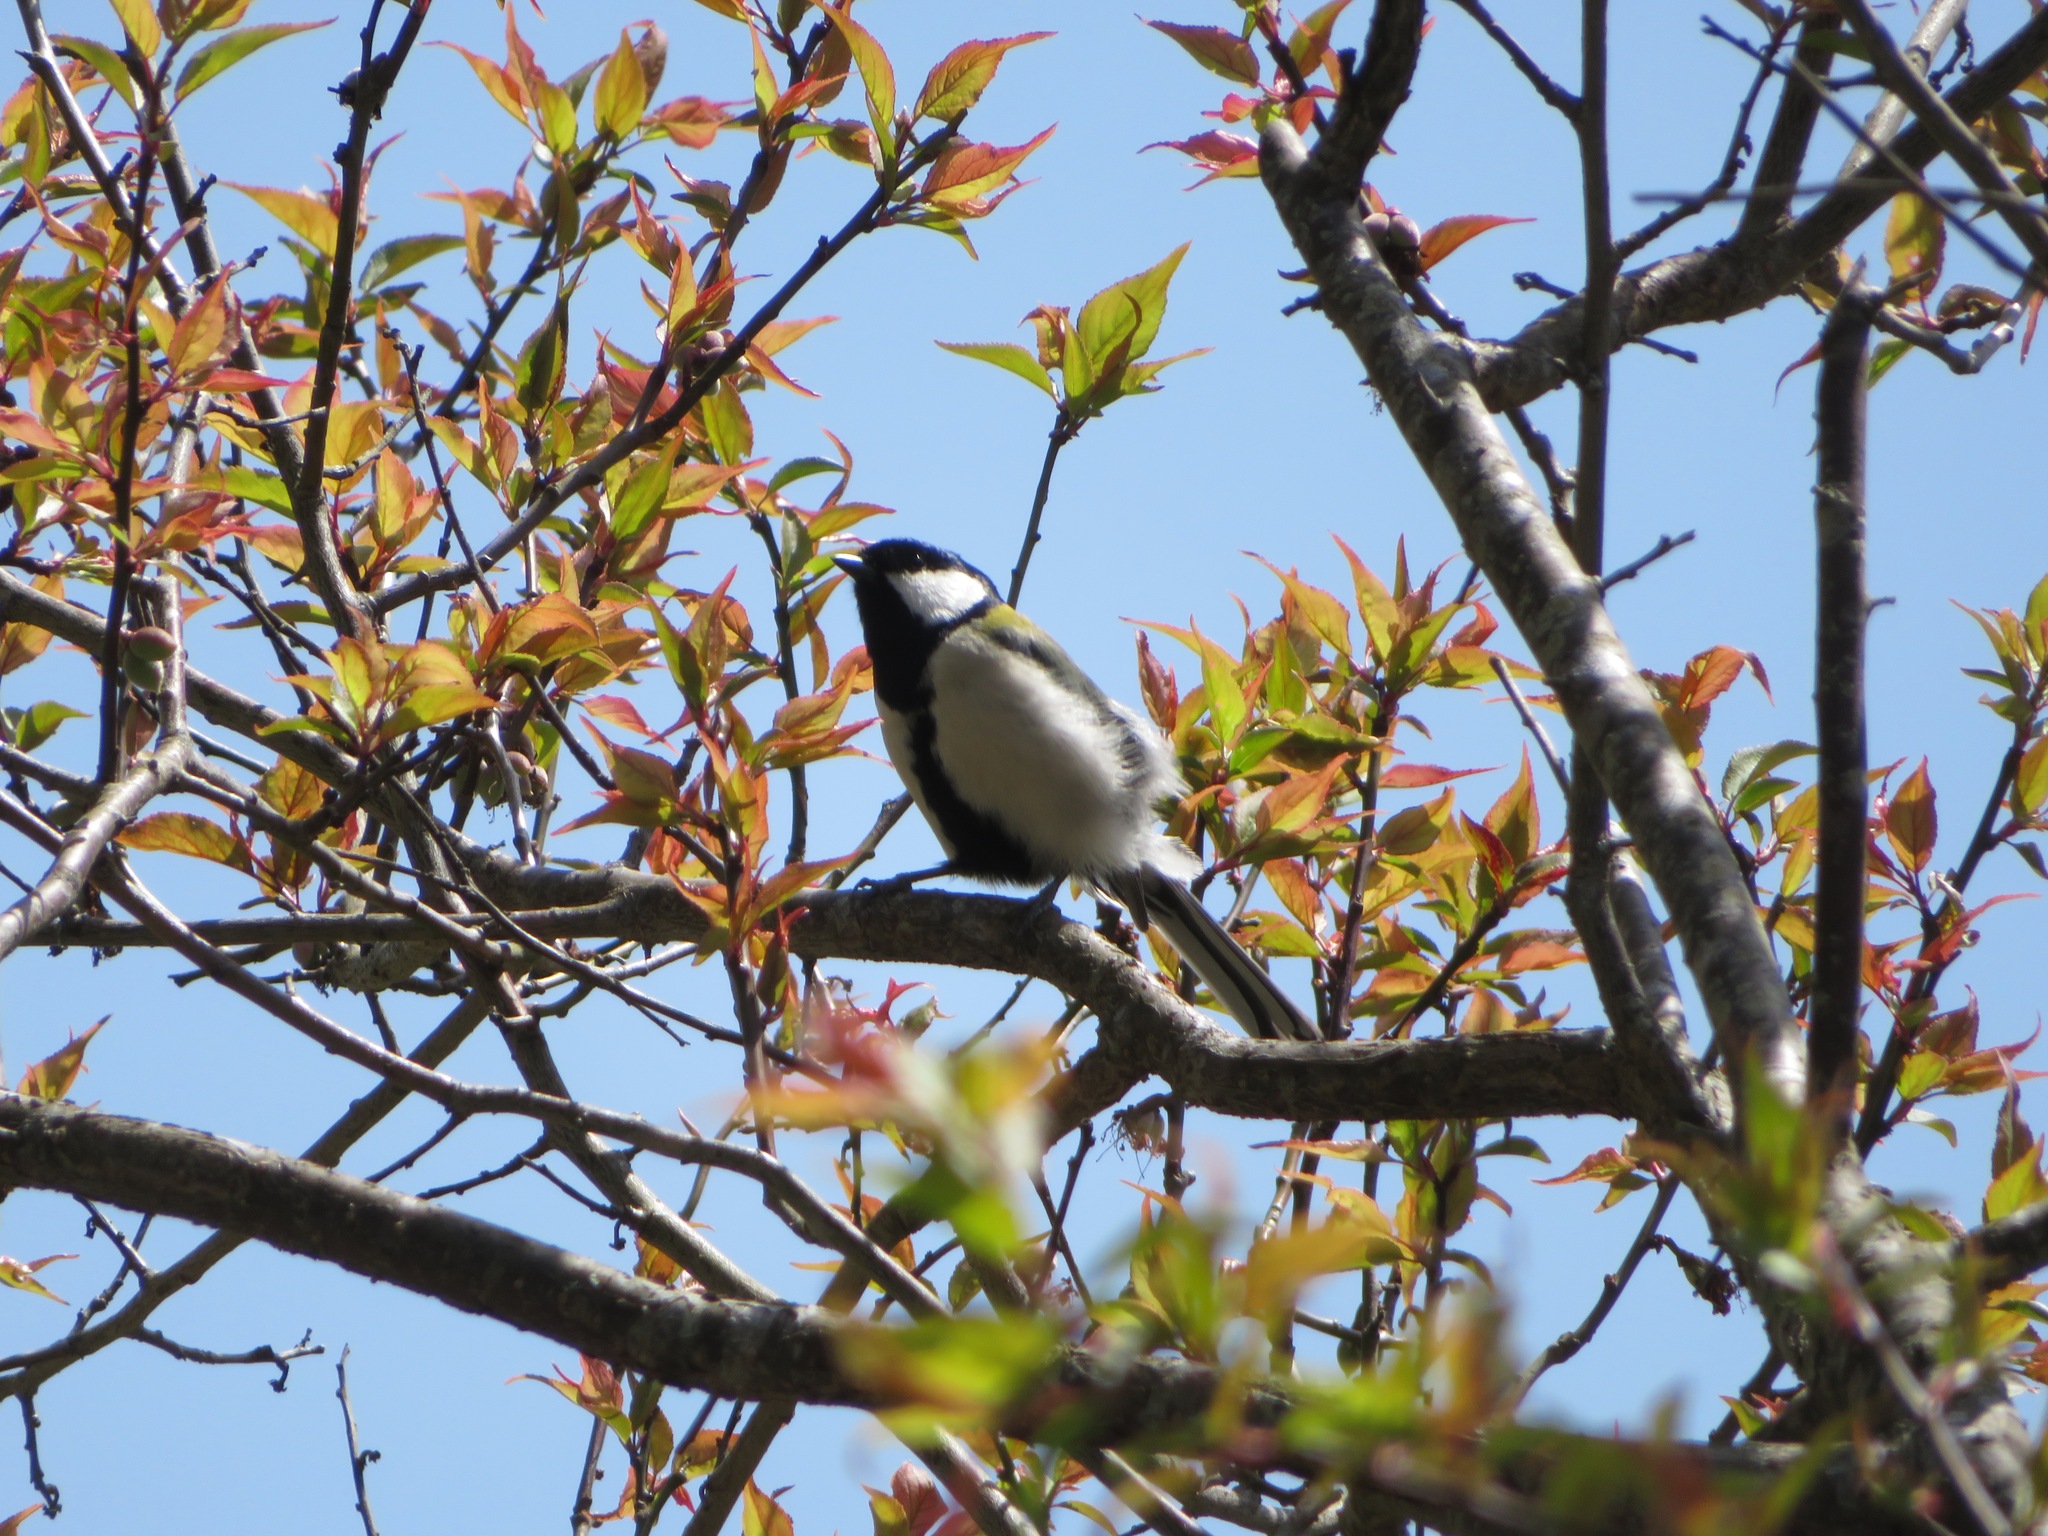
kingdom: Animalia
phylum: Chordata
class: Aves
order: Passeriformes
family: Paridae
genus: Parus
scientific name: Parus minor
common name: Japanese tit
